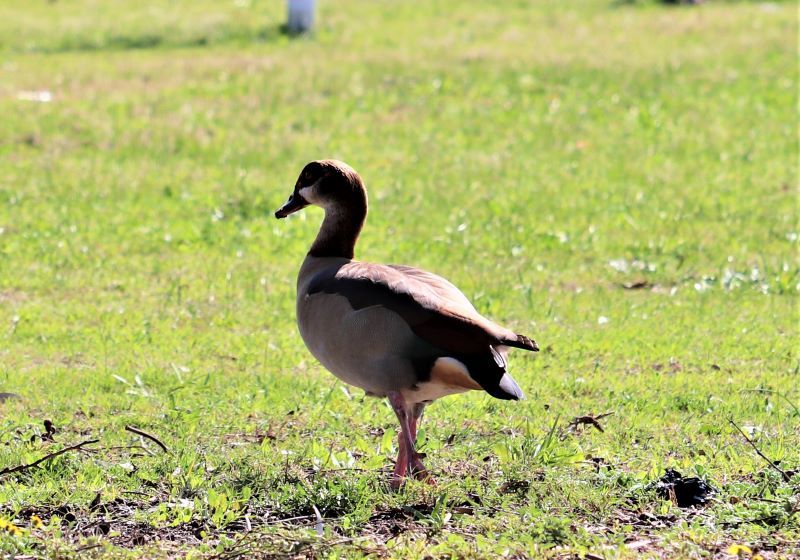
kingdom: Animalia
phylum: Chordata
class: Aves
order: Anseriformes
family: Anatidae
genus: Alopochen
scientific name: Alopochen aegyptiaca
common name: Egyptian goose
